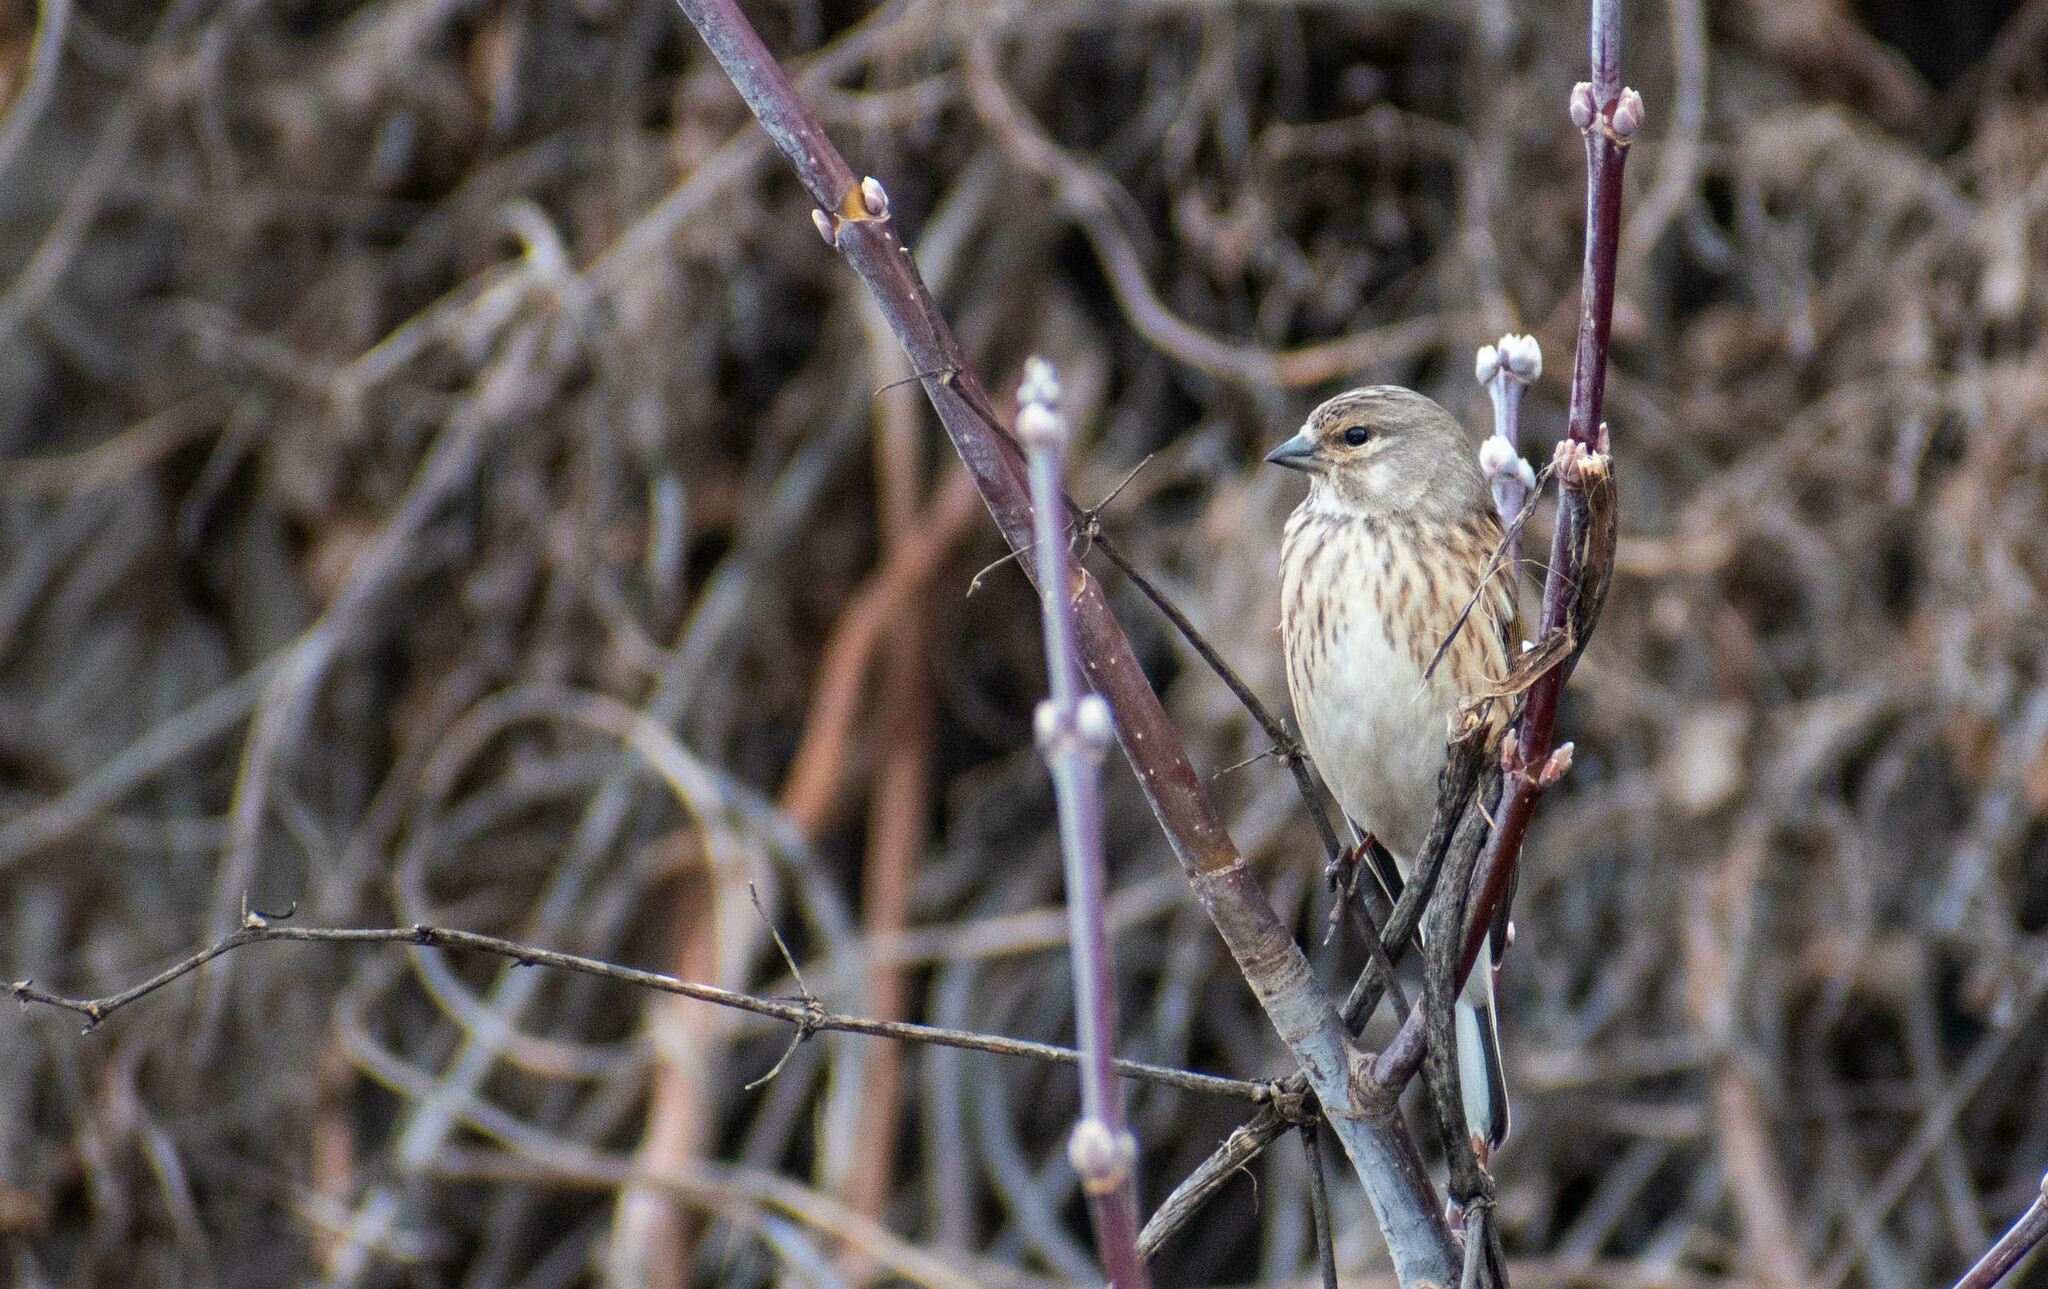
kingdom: Animalia
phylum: Chordata
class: Aves
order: Passeriformes
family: Fringillidae
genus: Linaria
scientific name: Linaria cannabina
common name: Common linnet
